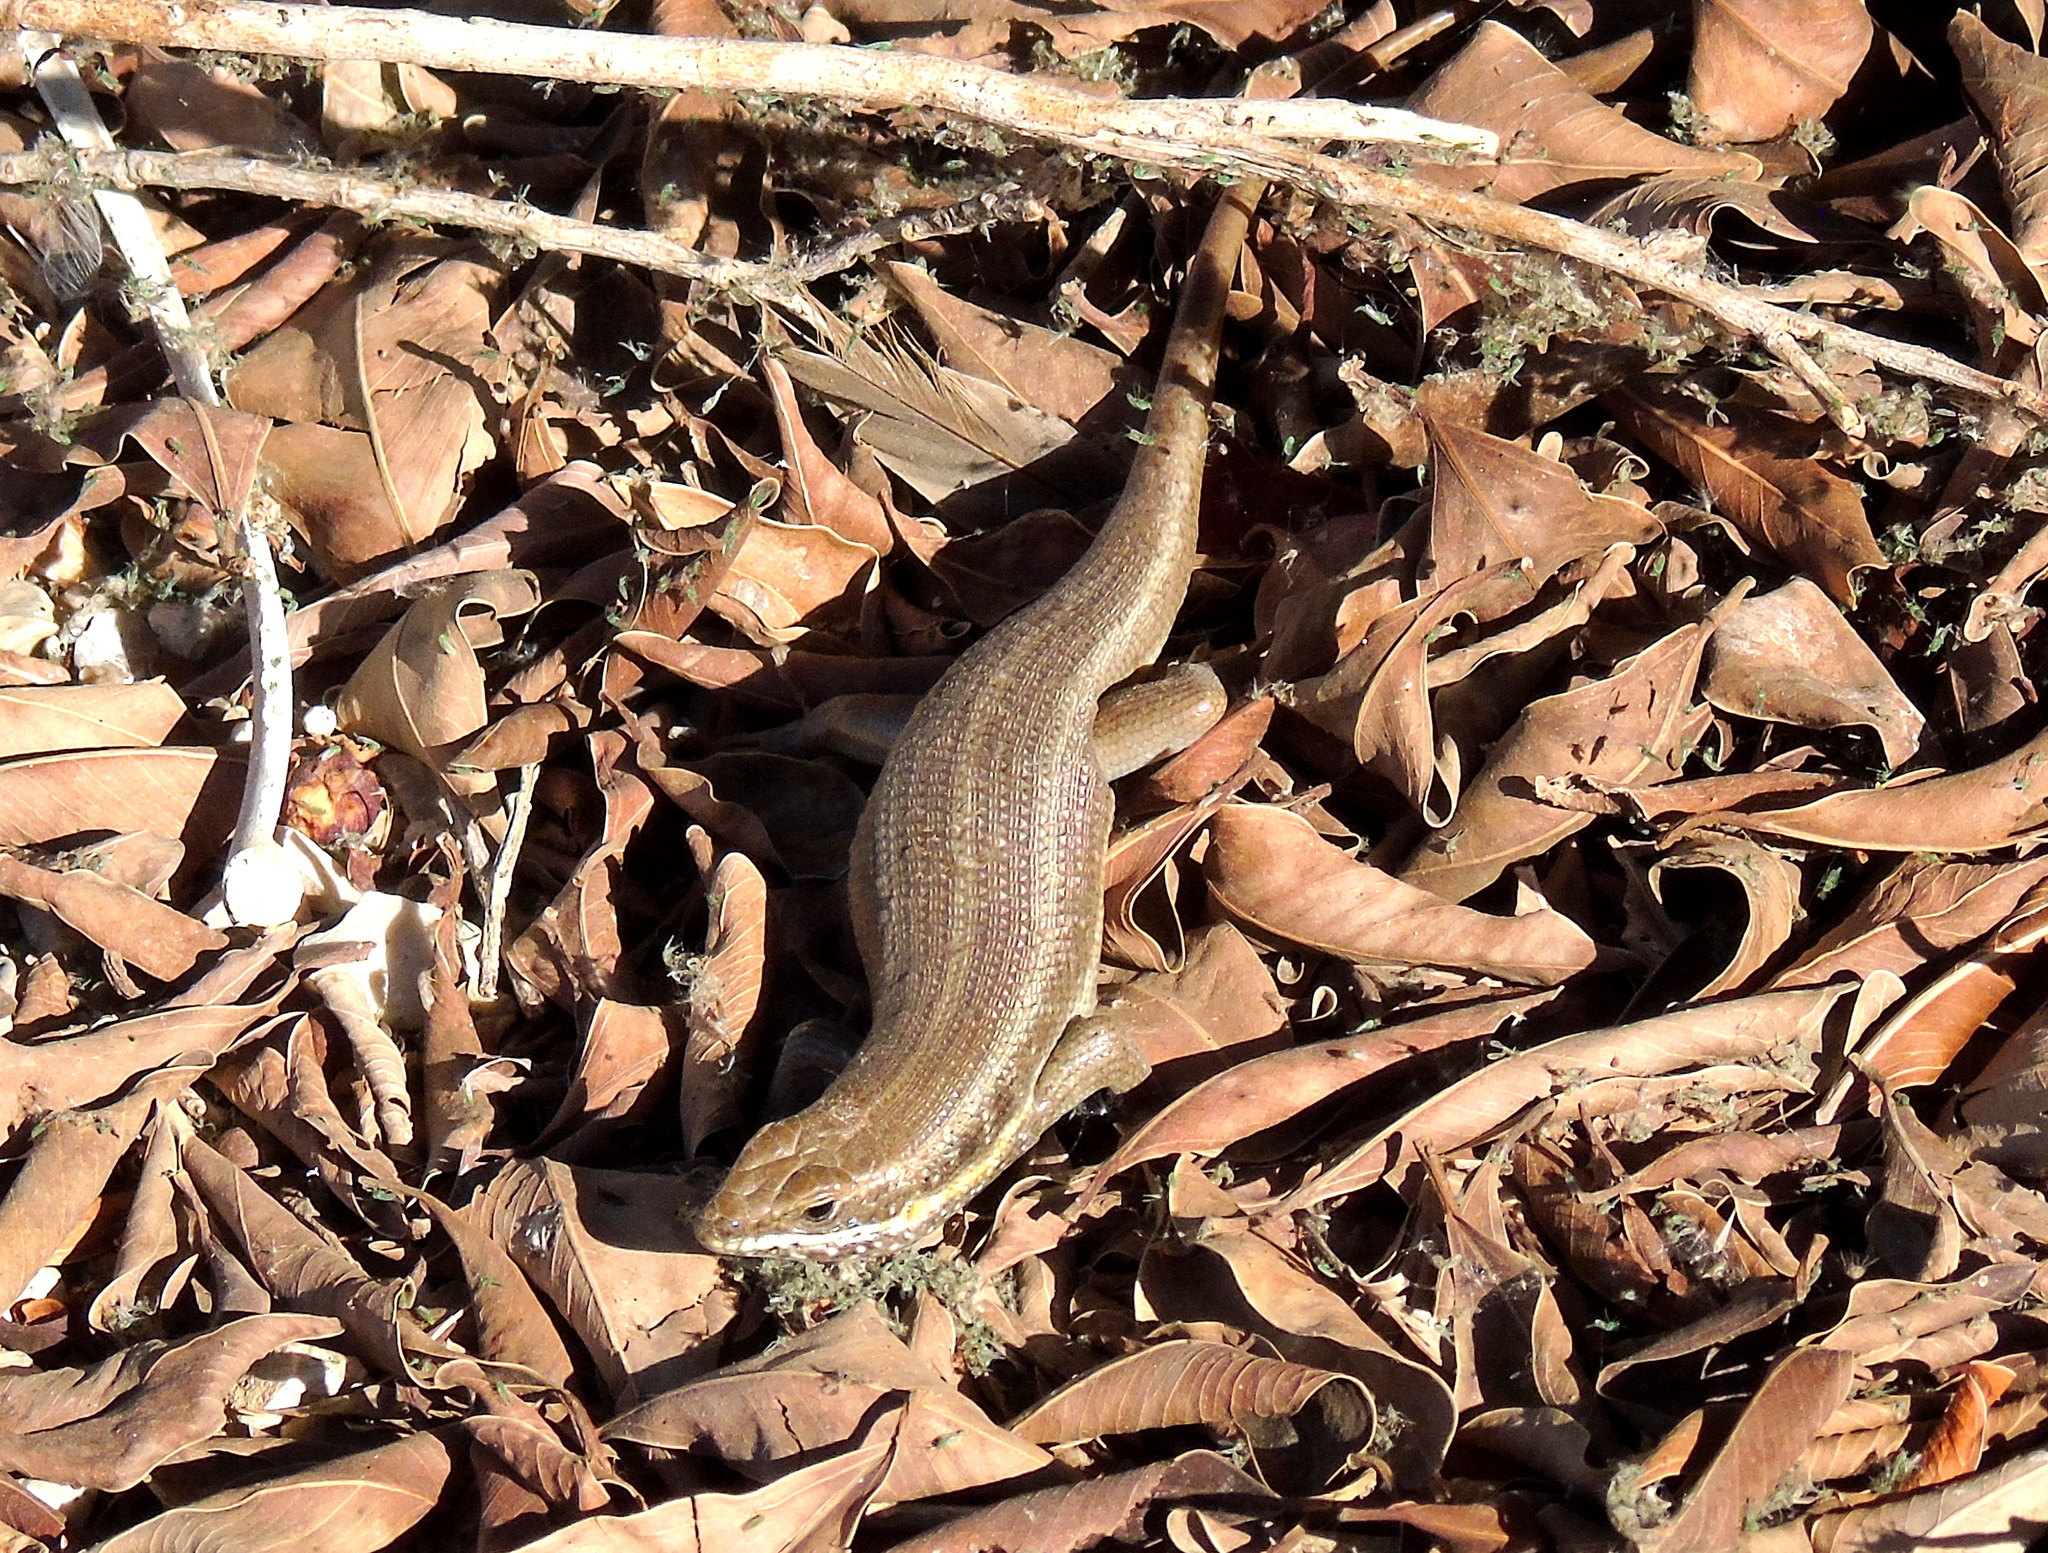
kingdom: Animalia
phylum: Chordata
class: Squamata
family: Scincidae
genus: Trachylepis
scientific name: Trachylepis quinquetaeniata
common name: African five-lined skink
